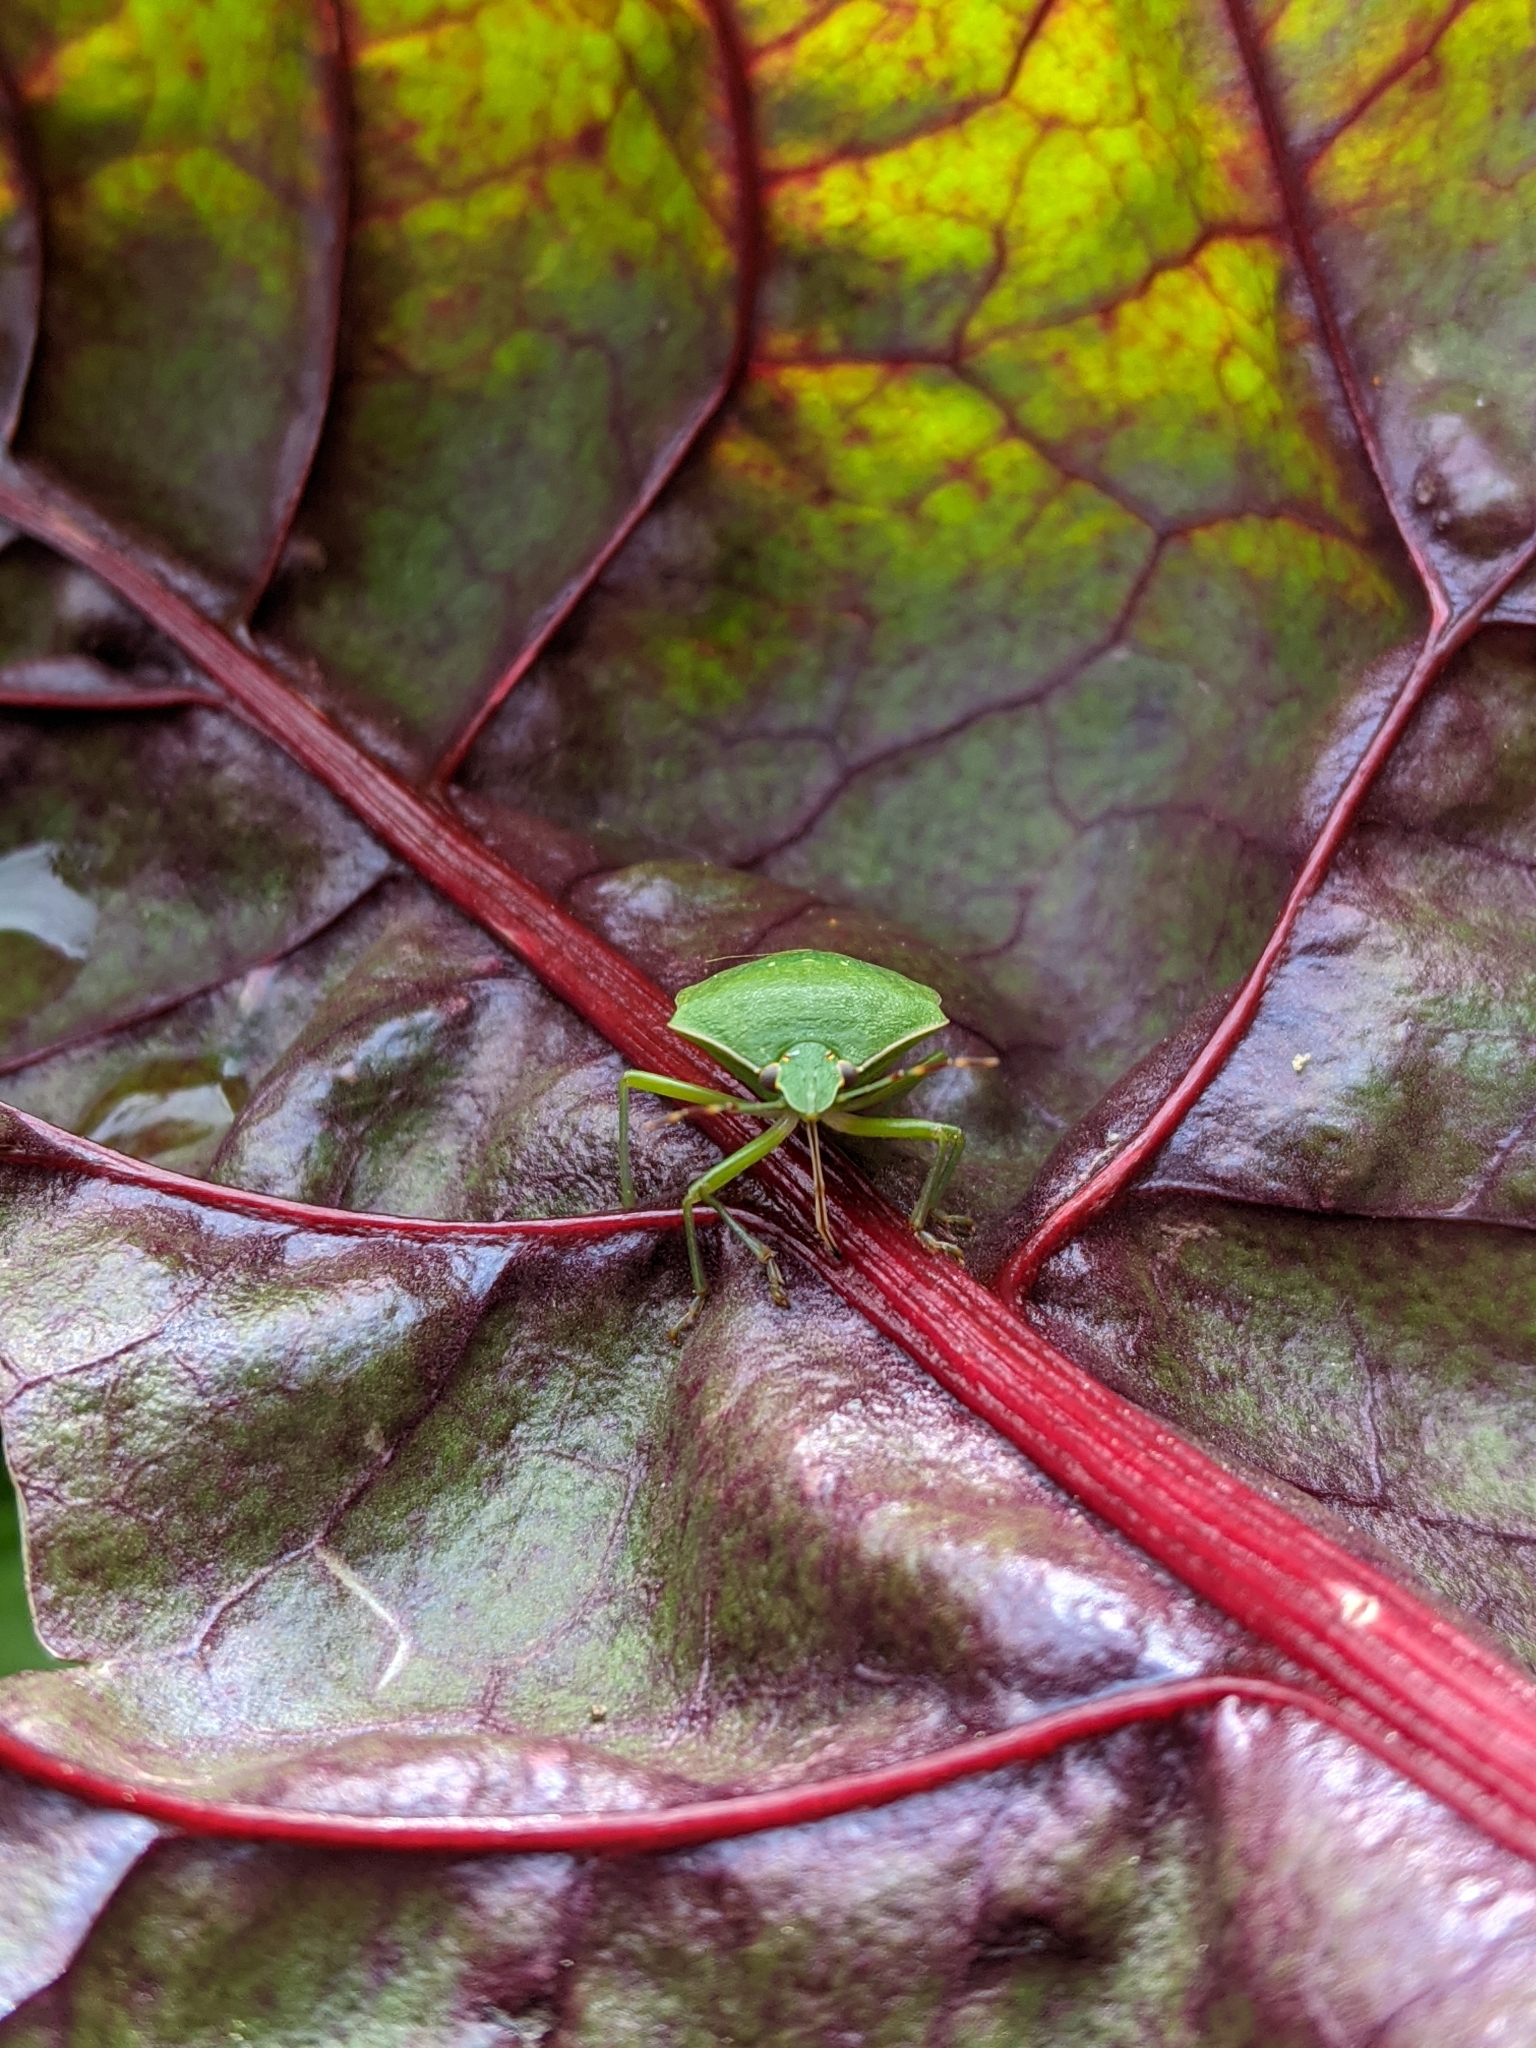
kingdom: Animalia
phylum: Arthropoda
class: Insecta
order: Hemiptera
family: Pentatomidae
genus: Nezara
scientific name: Nezara viridula
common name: Southern green stink bug
